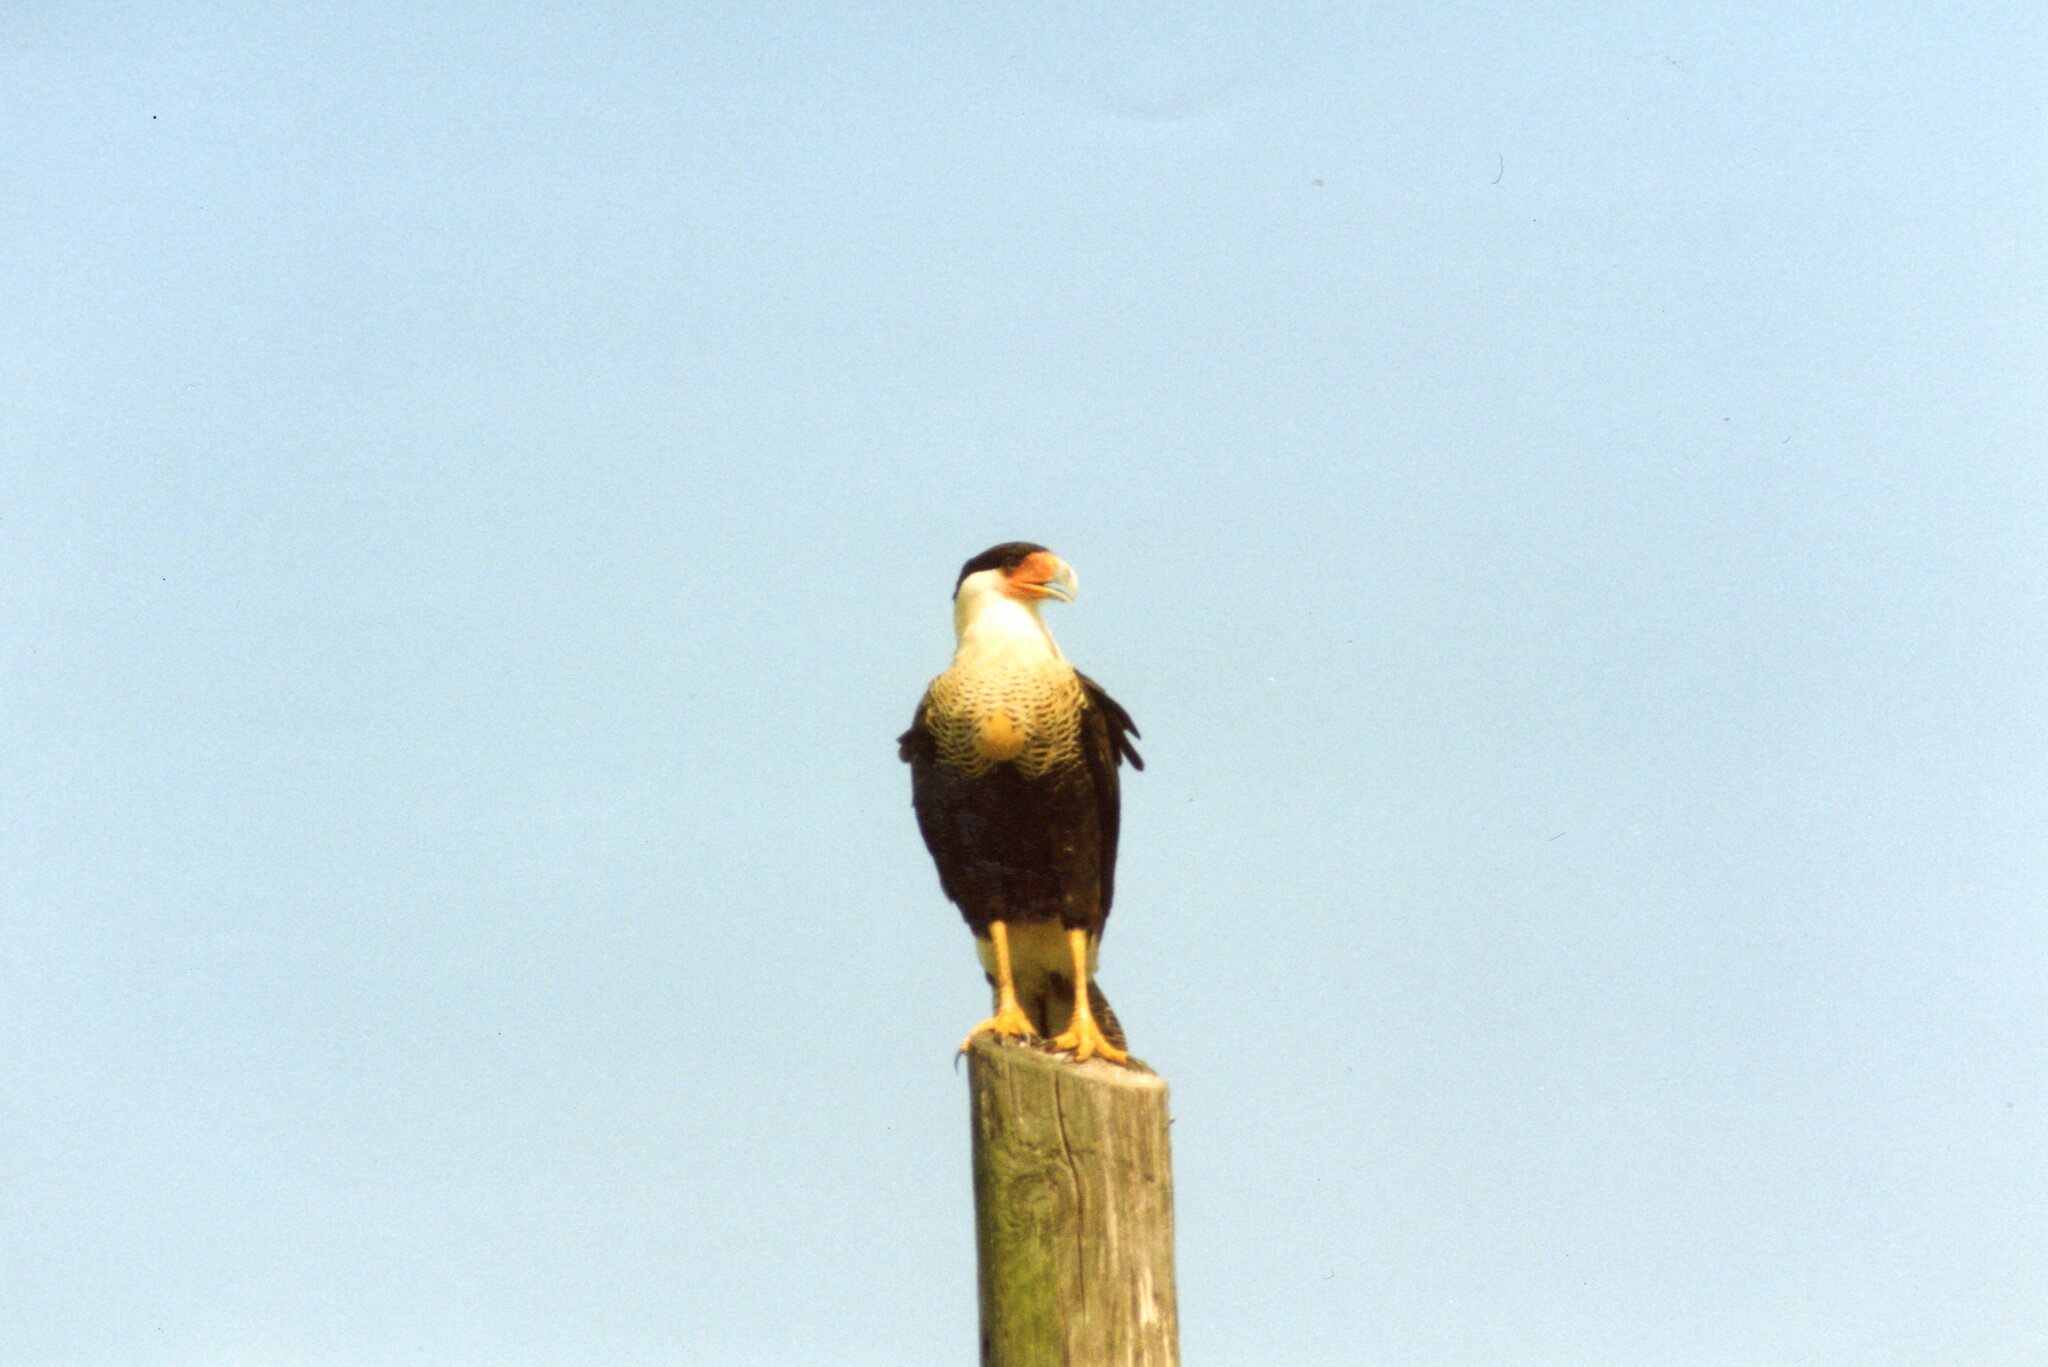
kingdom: Animalia
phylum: Chordata
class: Aves
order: Falconiformes
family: Falconidae
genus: Caracara
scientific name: Caracara plancus
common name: Southern caracara
